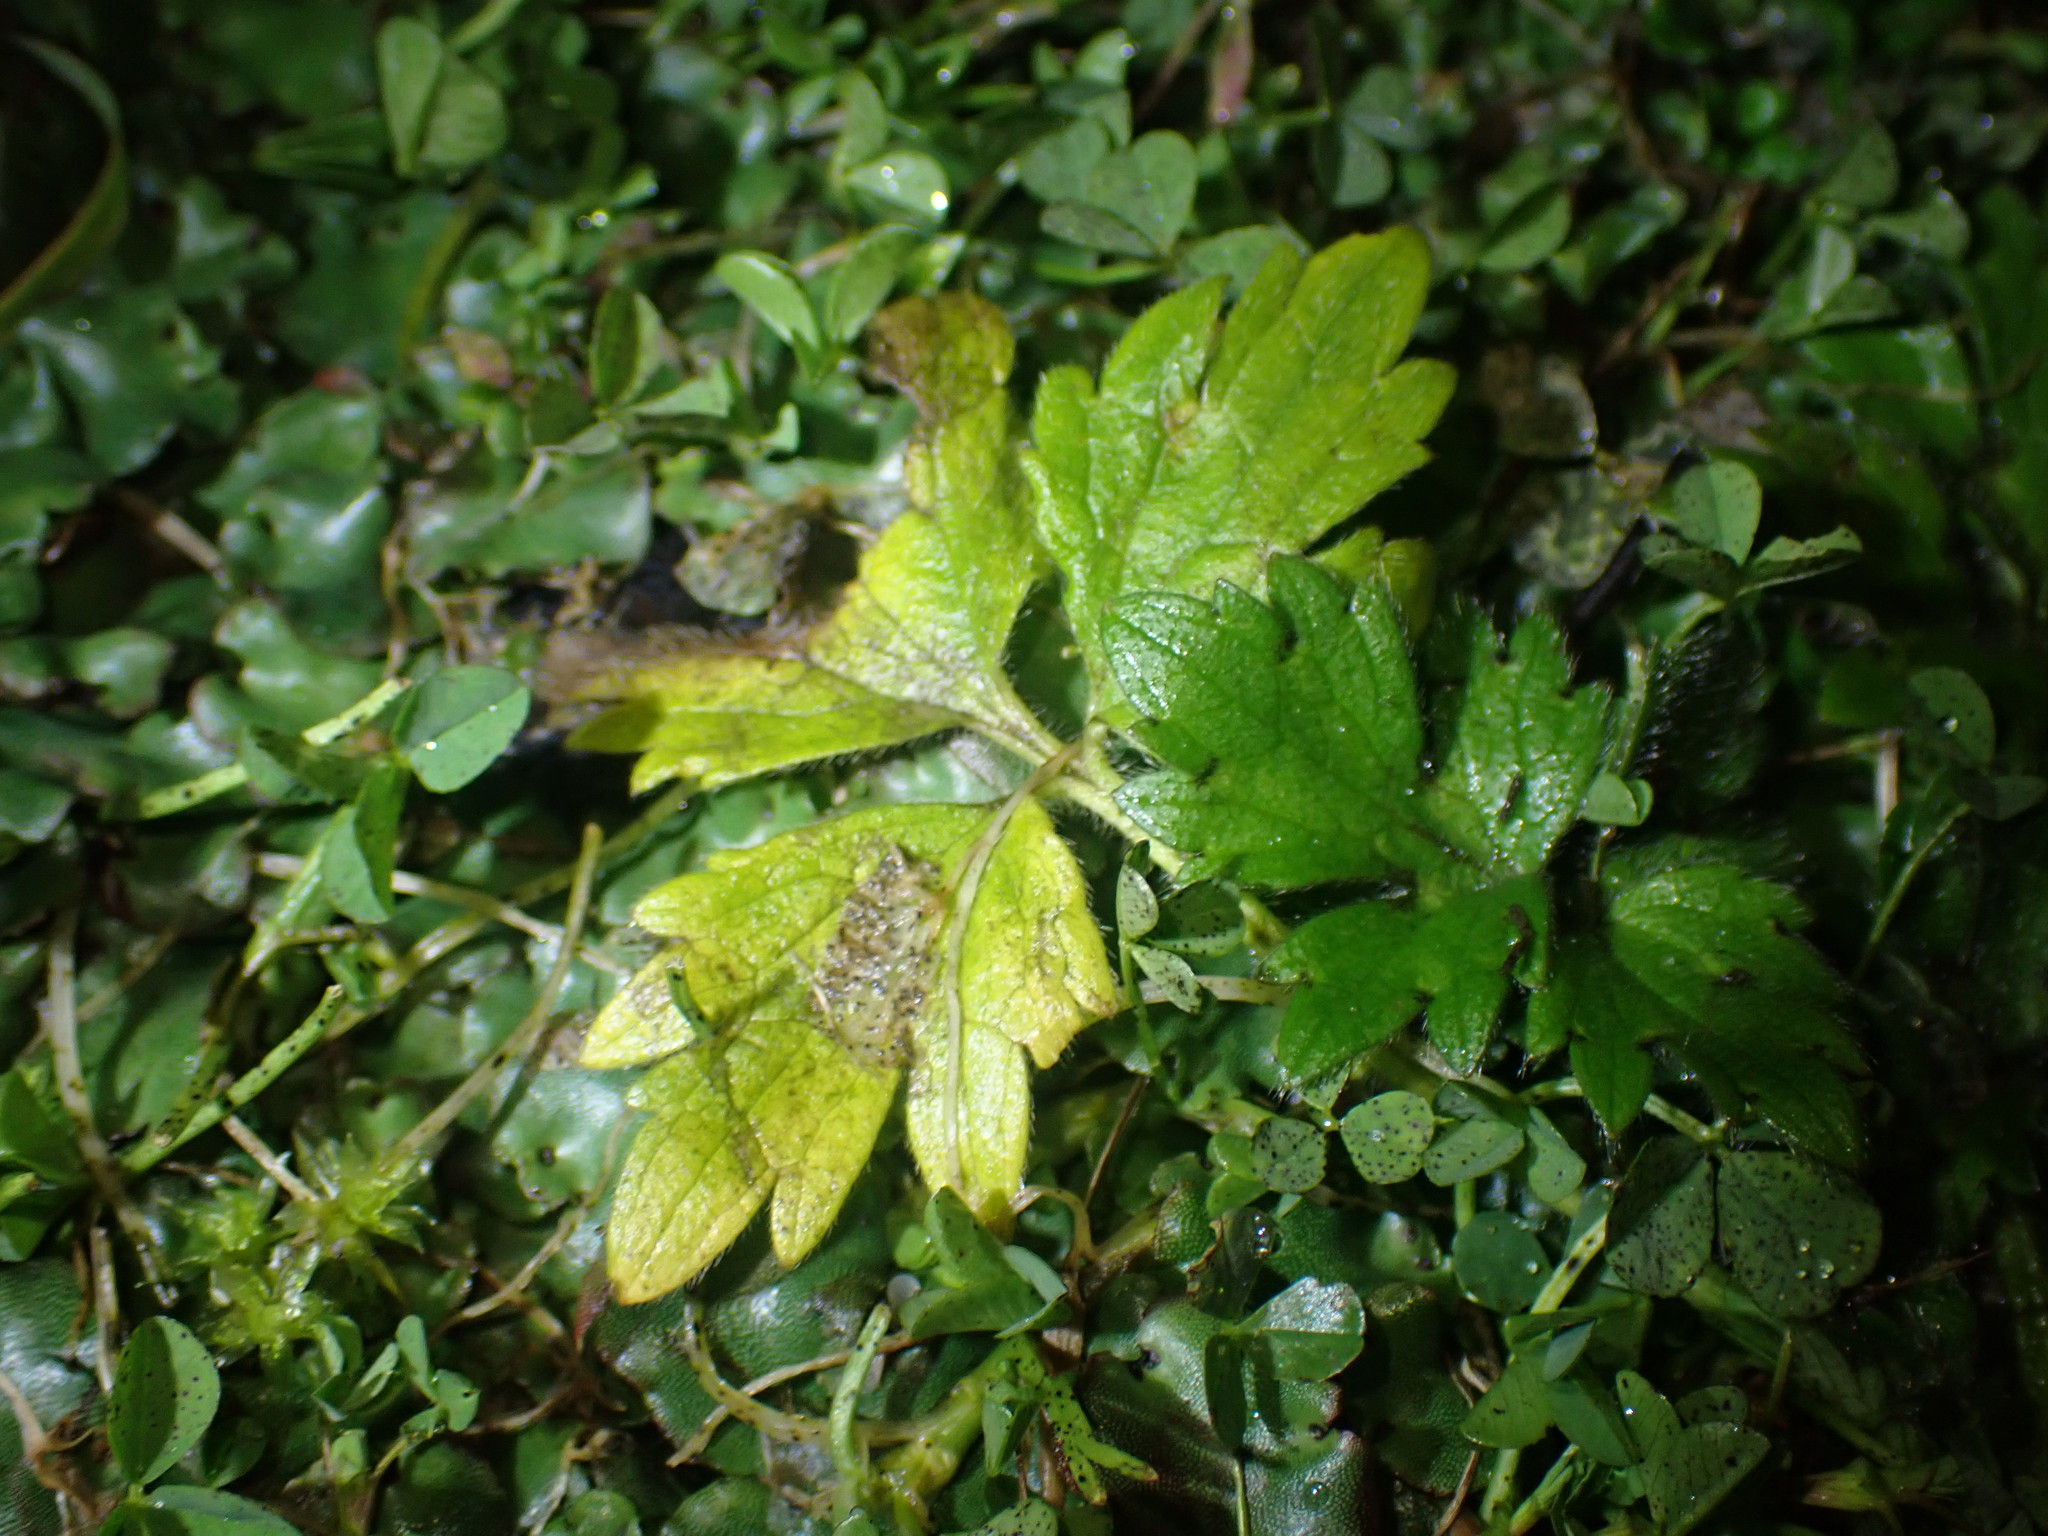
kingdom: Plantae
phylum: Tracheophyta
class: Magnoliopsida
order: Ranunculales
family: Ranunculaceae
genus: Ranunculus
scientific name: Ranunculus repens
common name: Creeping buttercup
